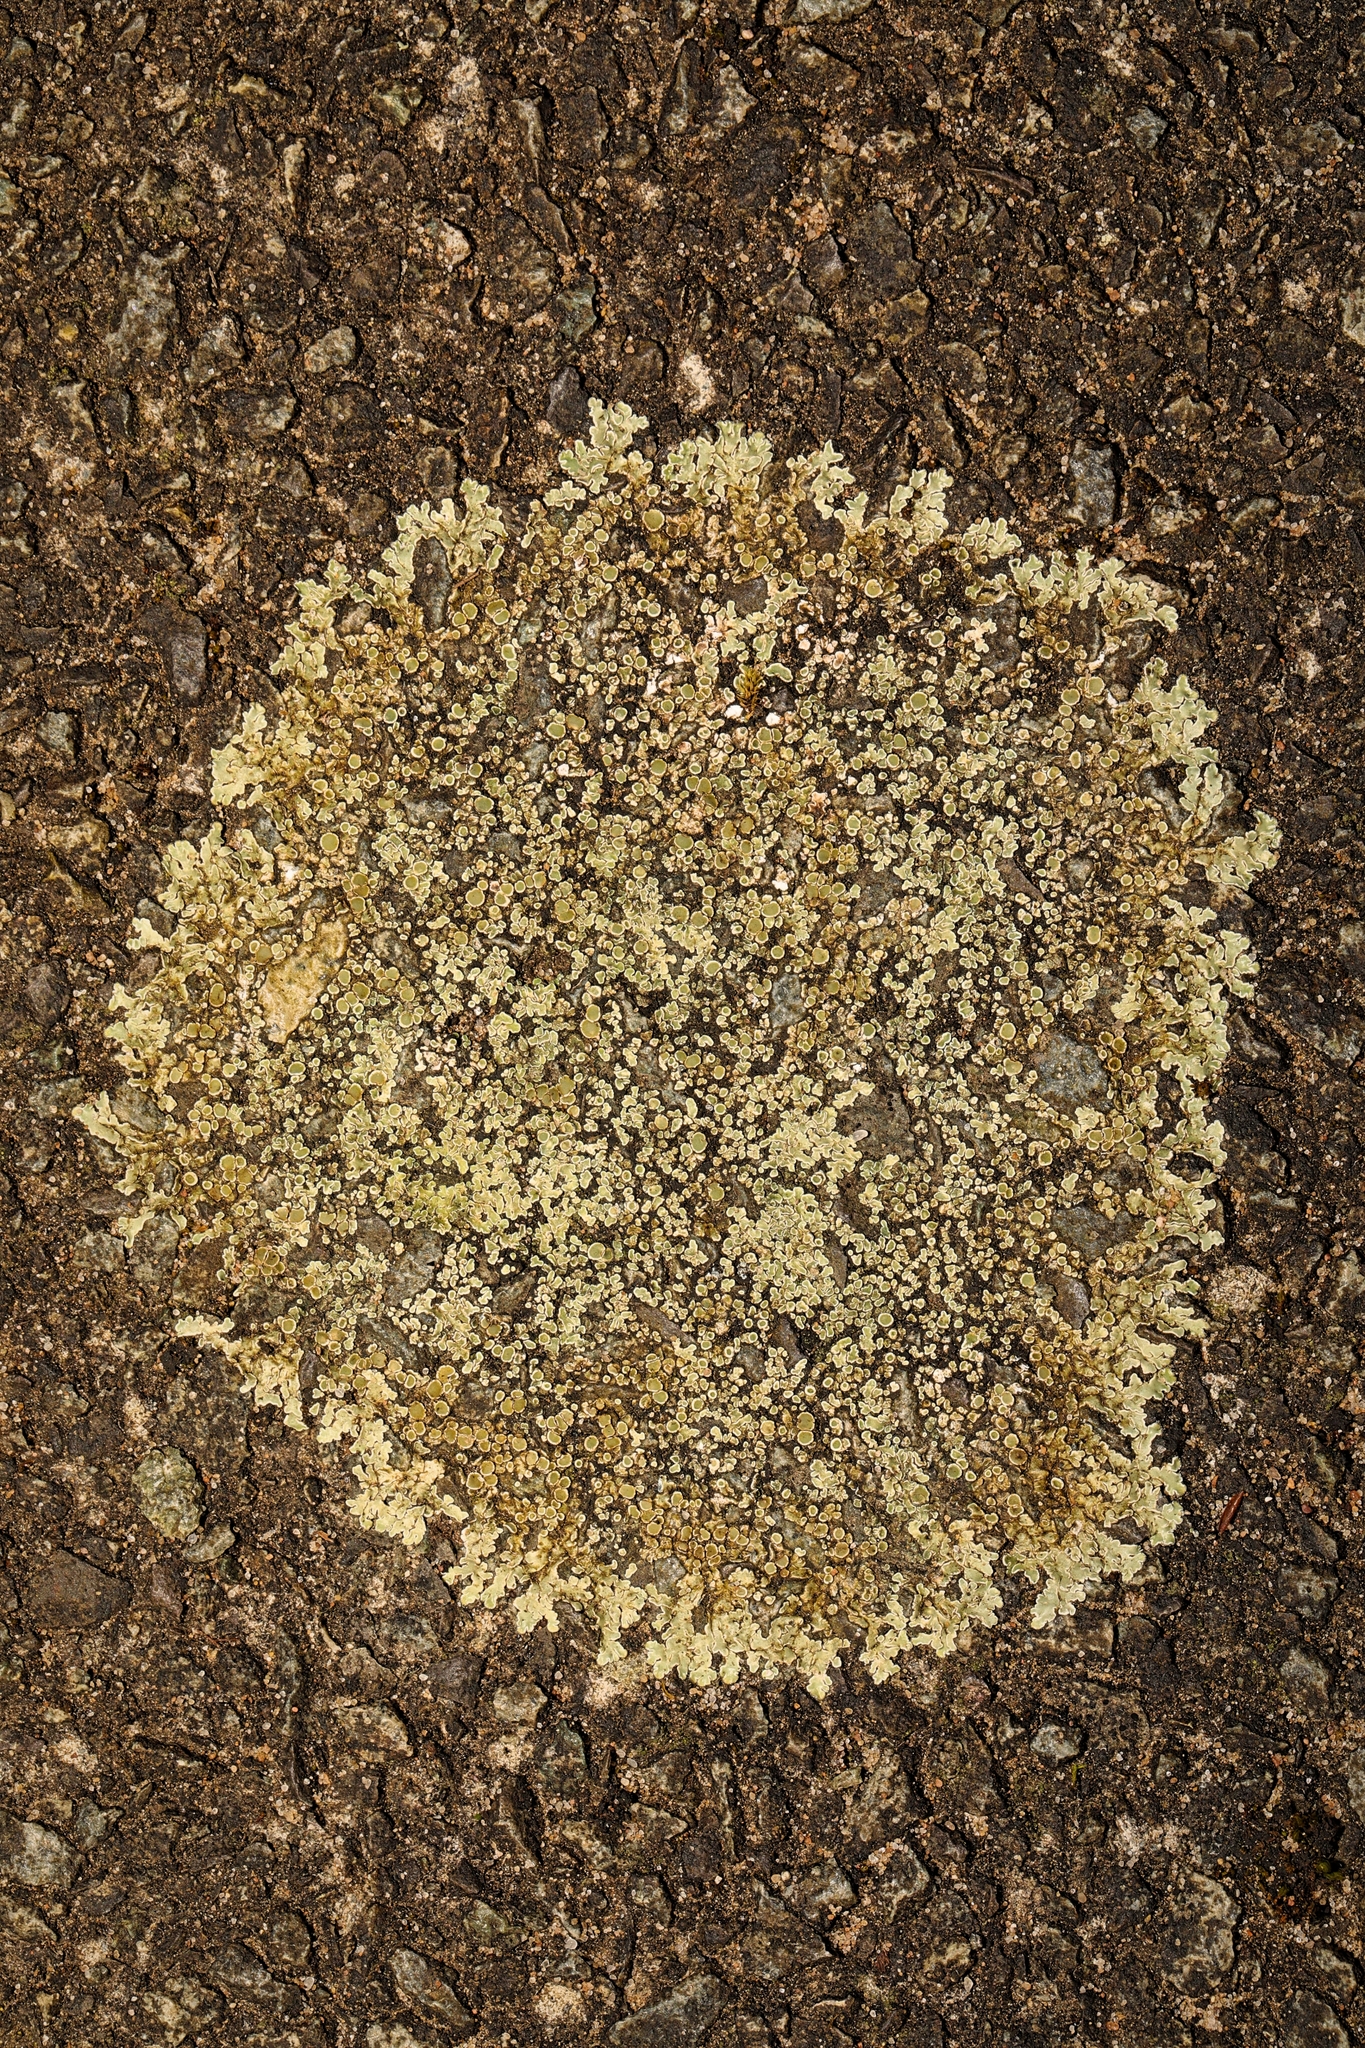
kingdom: Fungi
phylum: Ascomycota
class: Lecanoromycetes
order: Lecanorales
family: Lecanoraceae
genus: Protoparmeliopsis
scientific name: Protoparmeliopsis muralis
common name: Stonewall rim lichen
